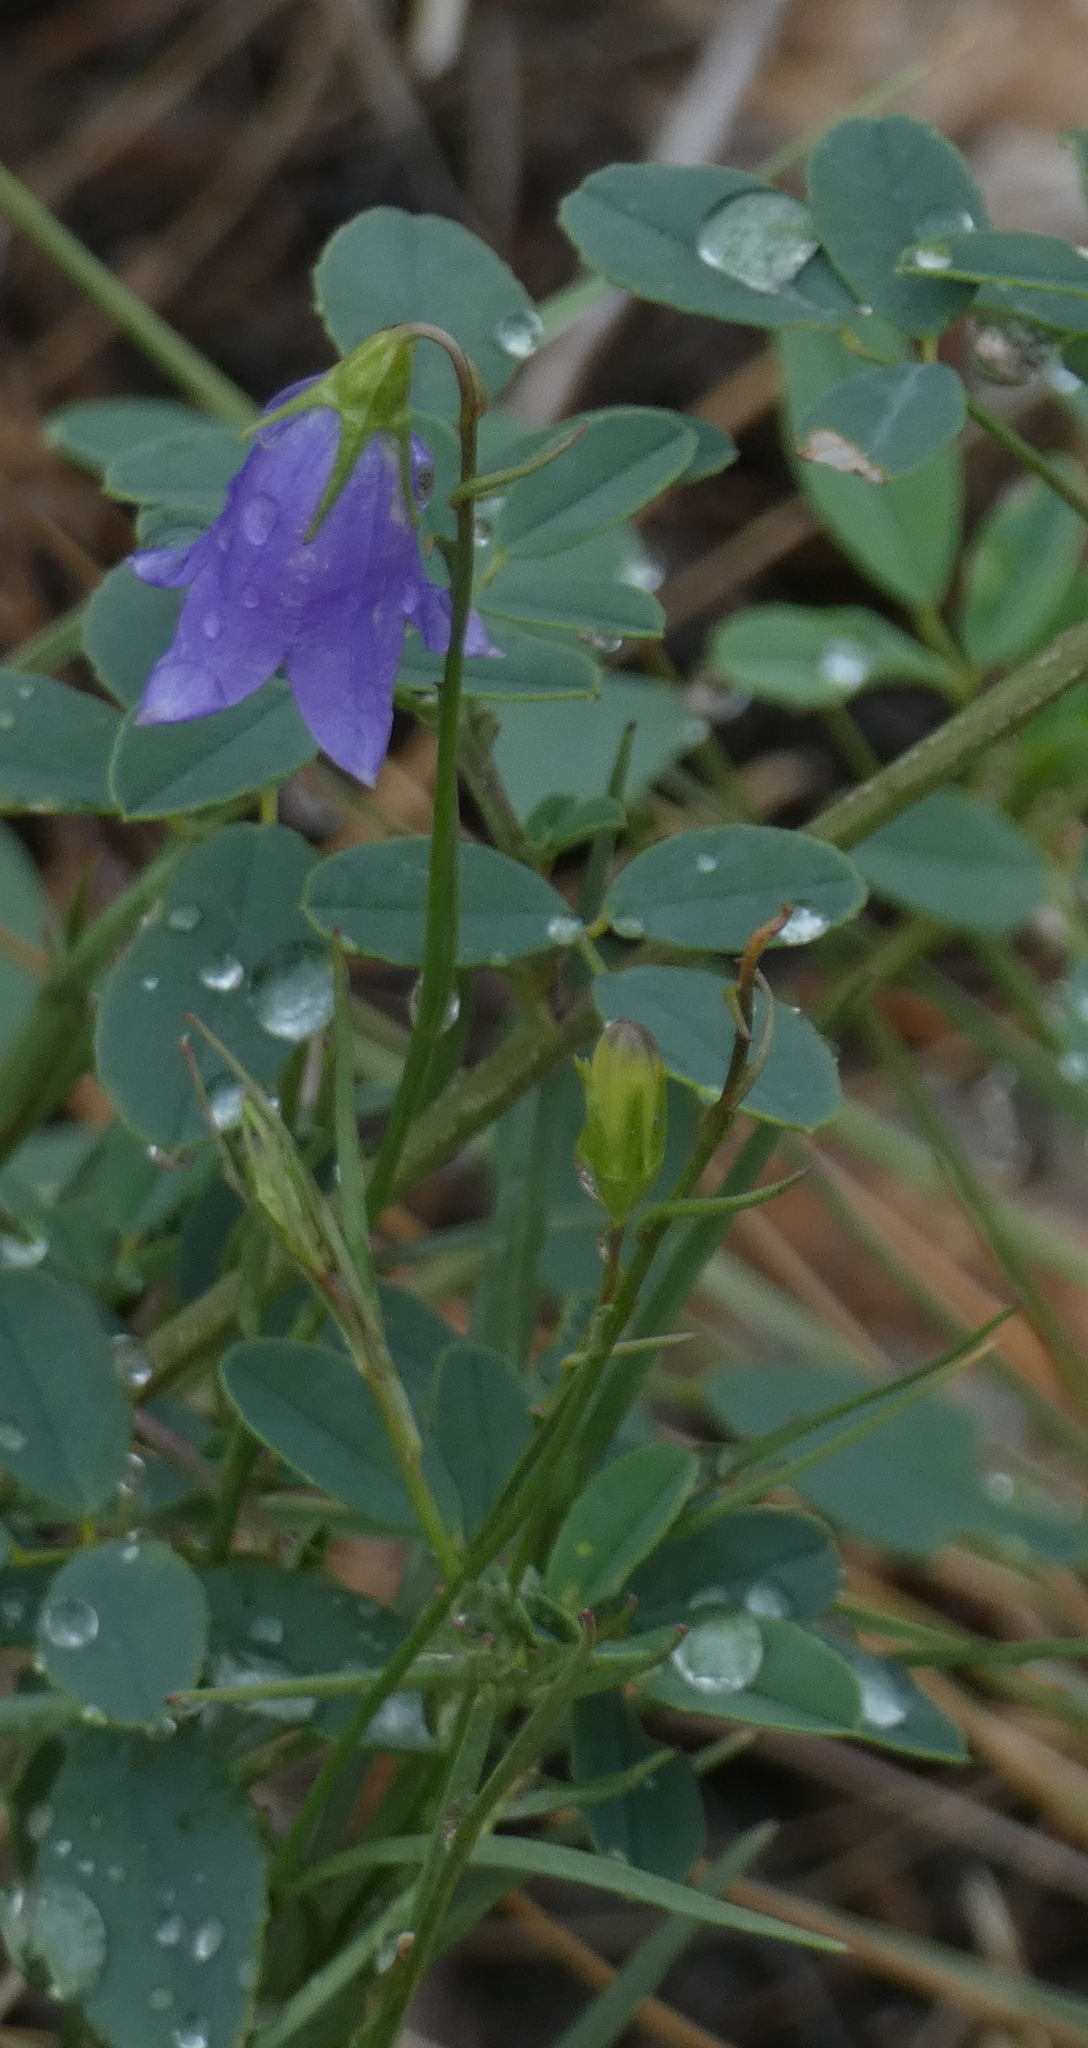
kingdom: Plantae
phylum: Tracheophyta
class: Magnoliopsida
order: Asterales
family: Campanulaceae
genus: Campanula
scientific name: Campanula alaskana
